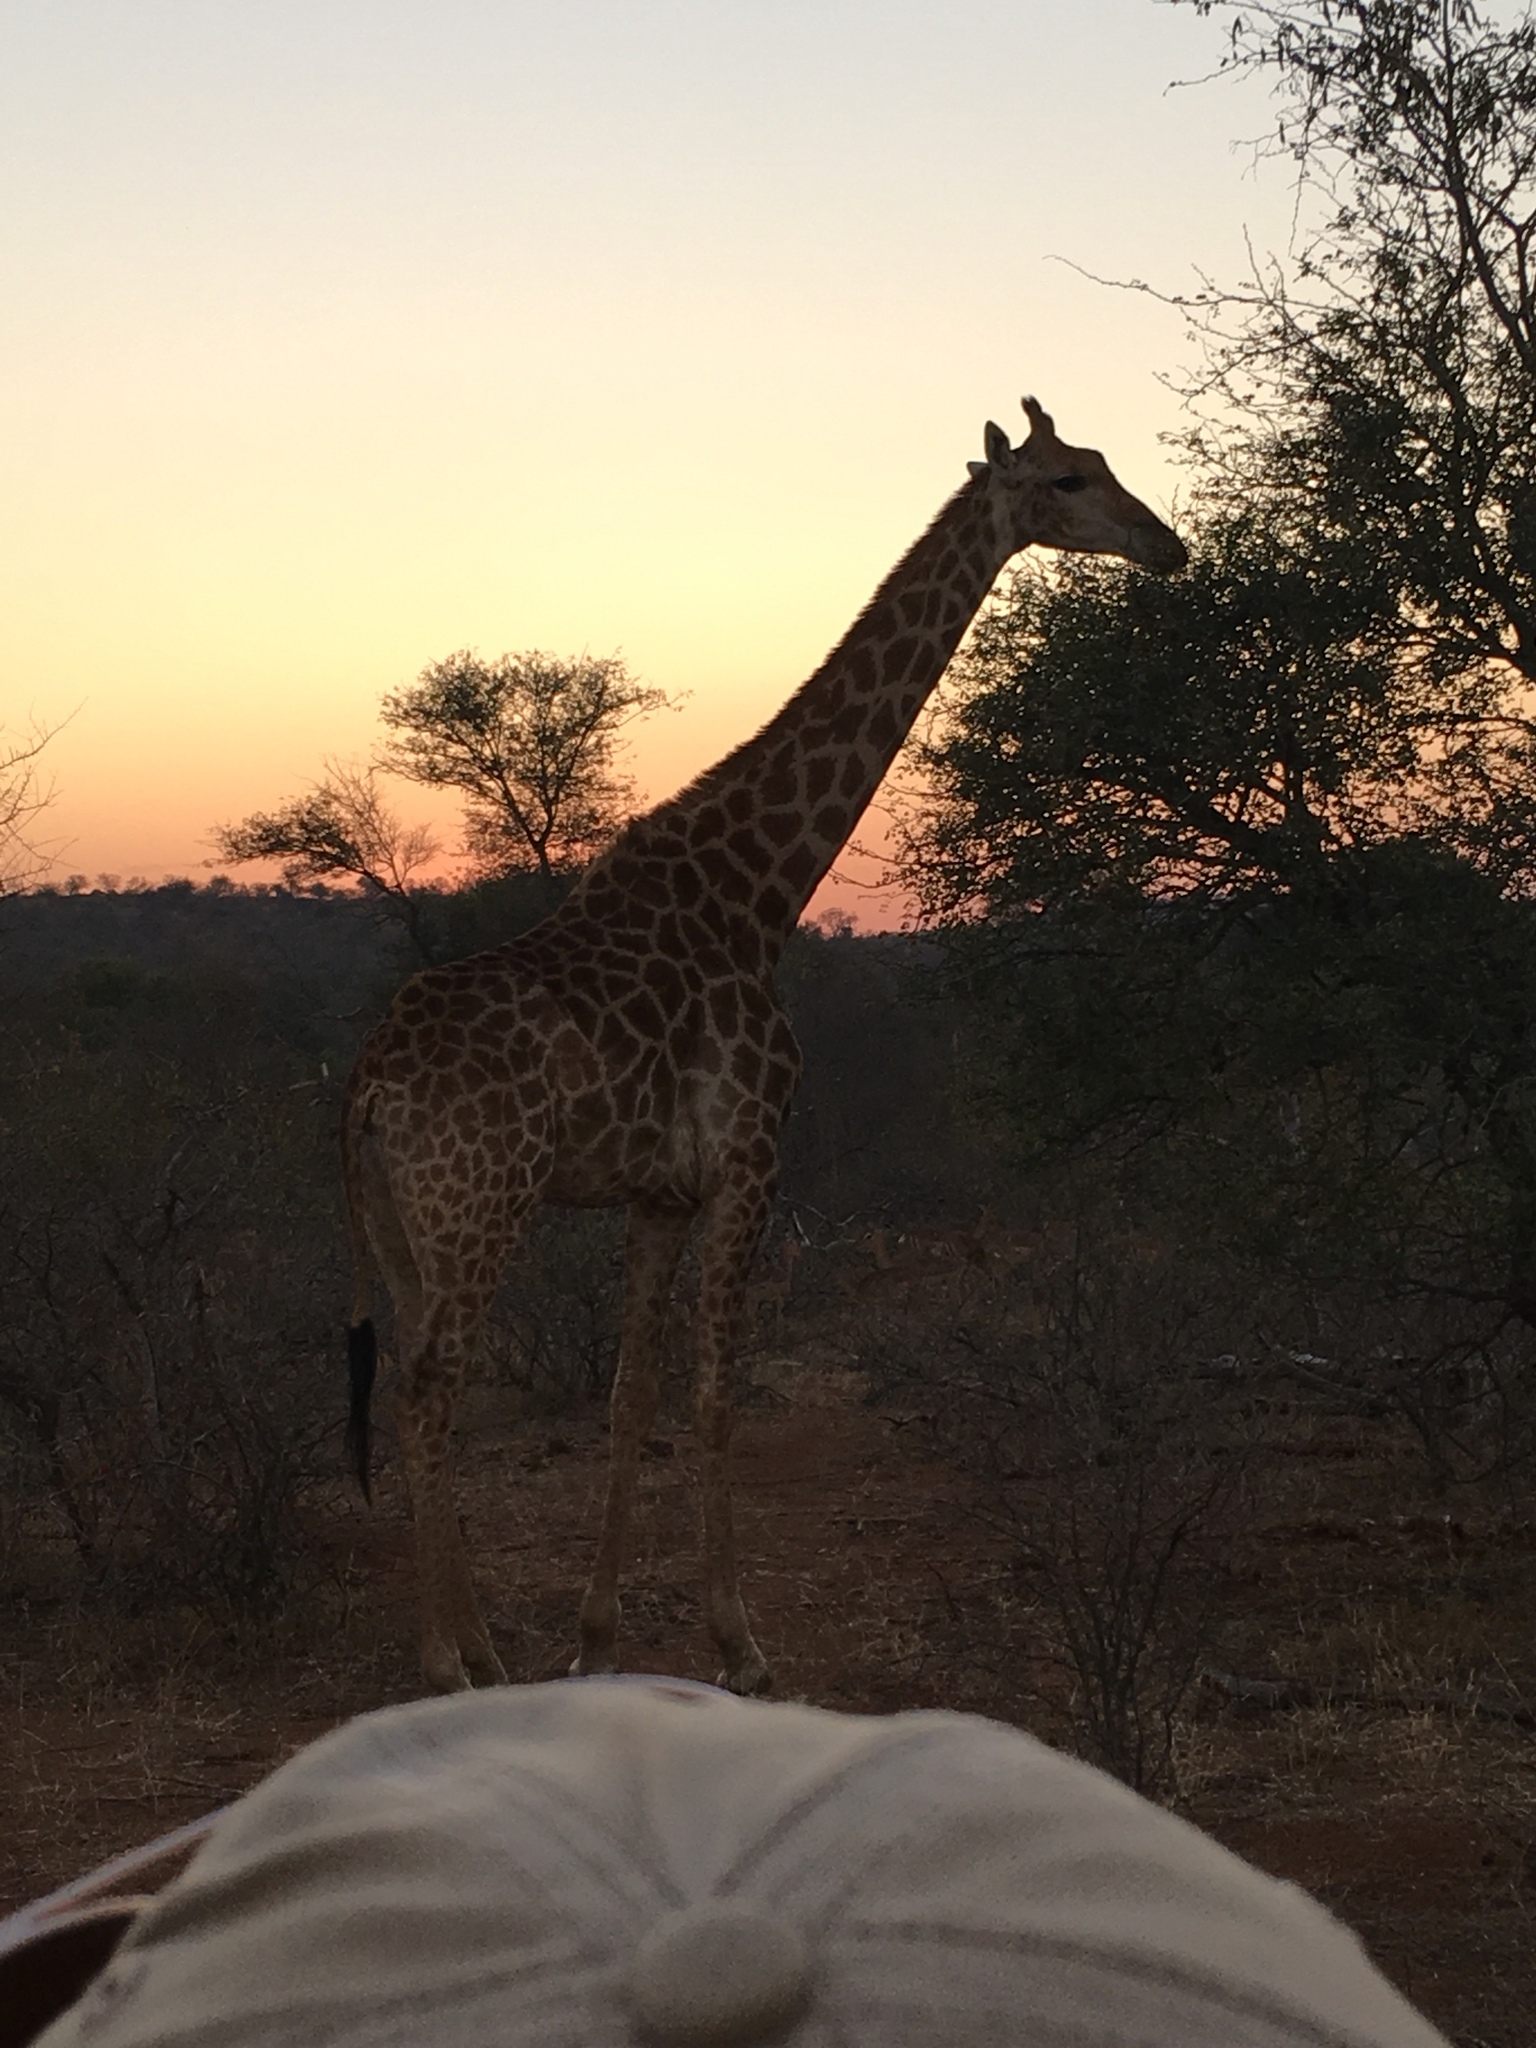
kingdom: Animalia
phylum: Chordata
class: Mammalia
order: Artiodactyla
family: Giraffidae
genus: Giraffa
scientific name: Giraffa giraffa
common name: Southern giraffe
